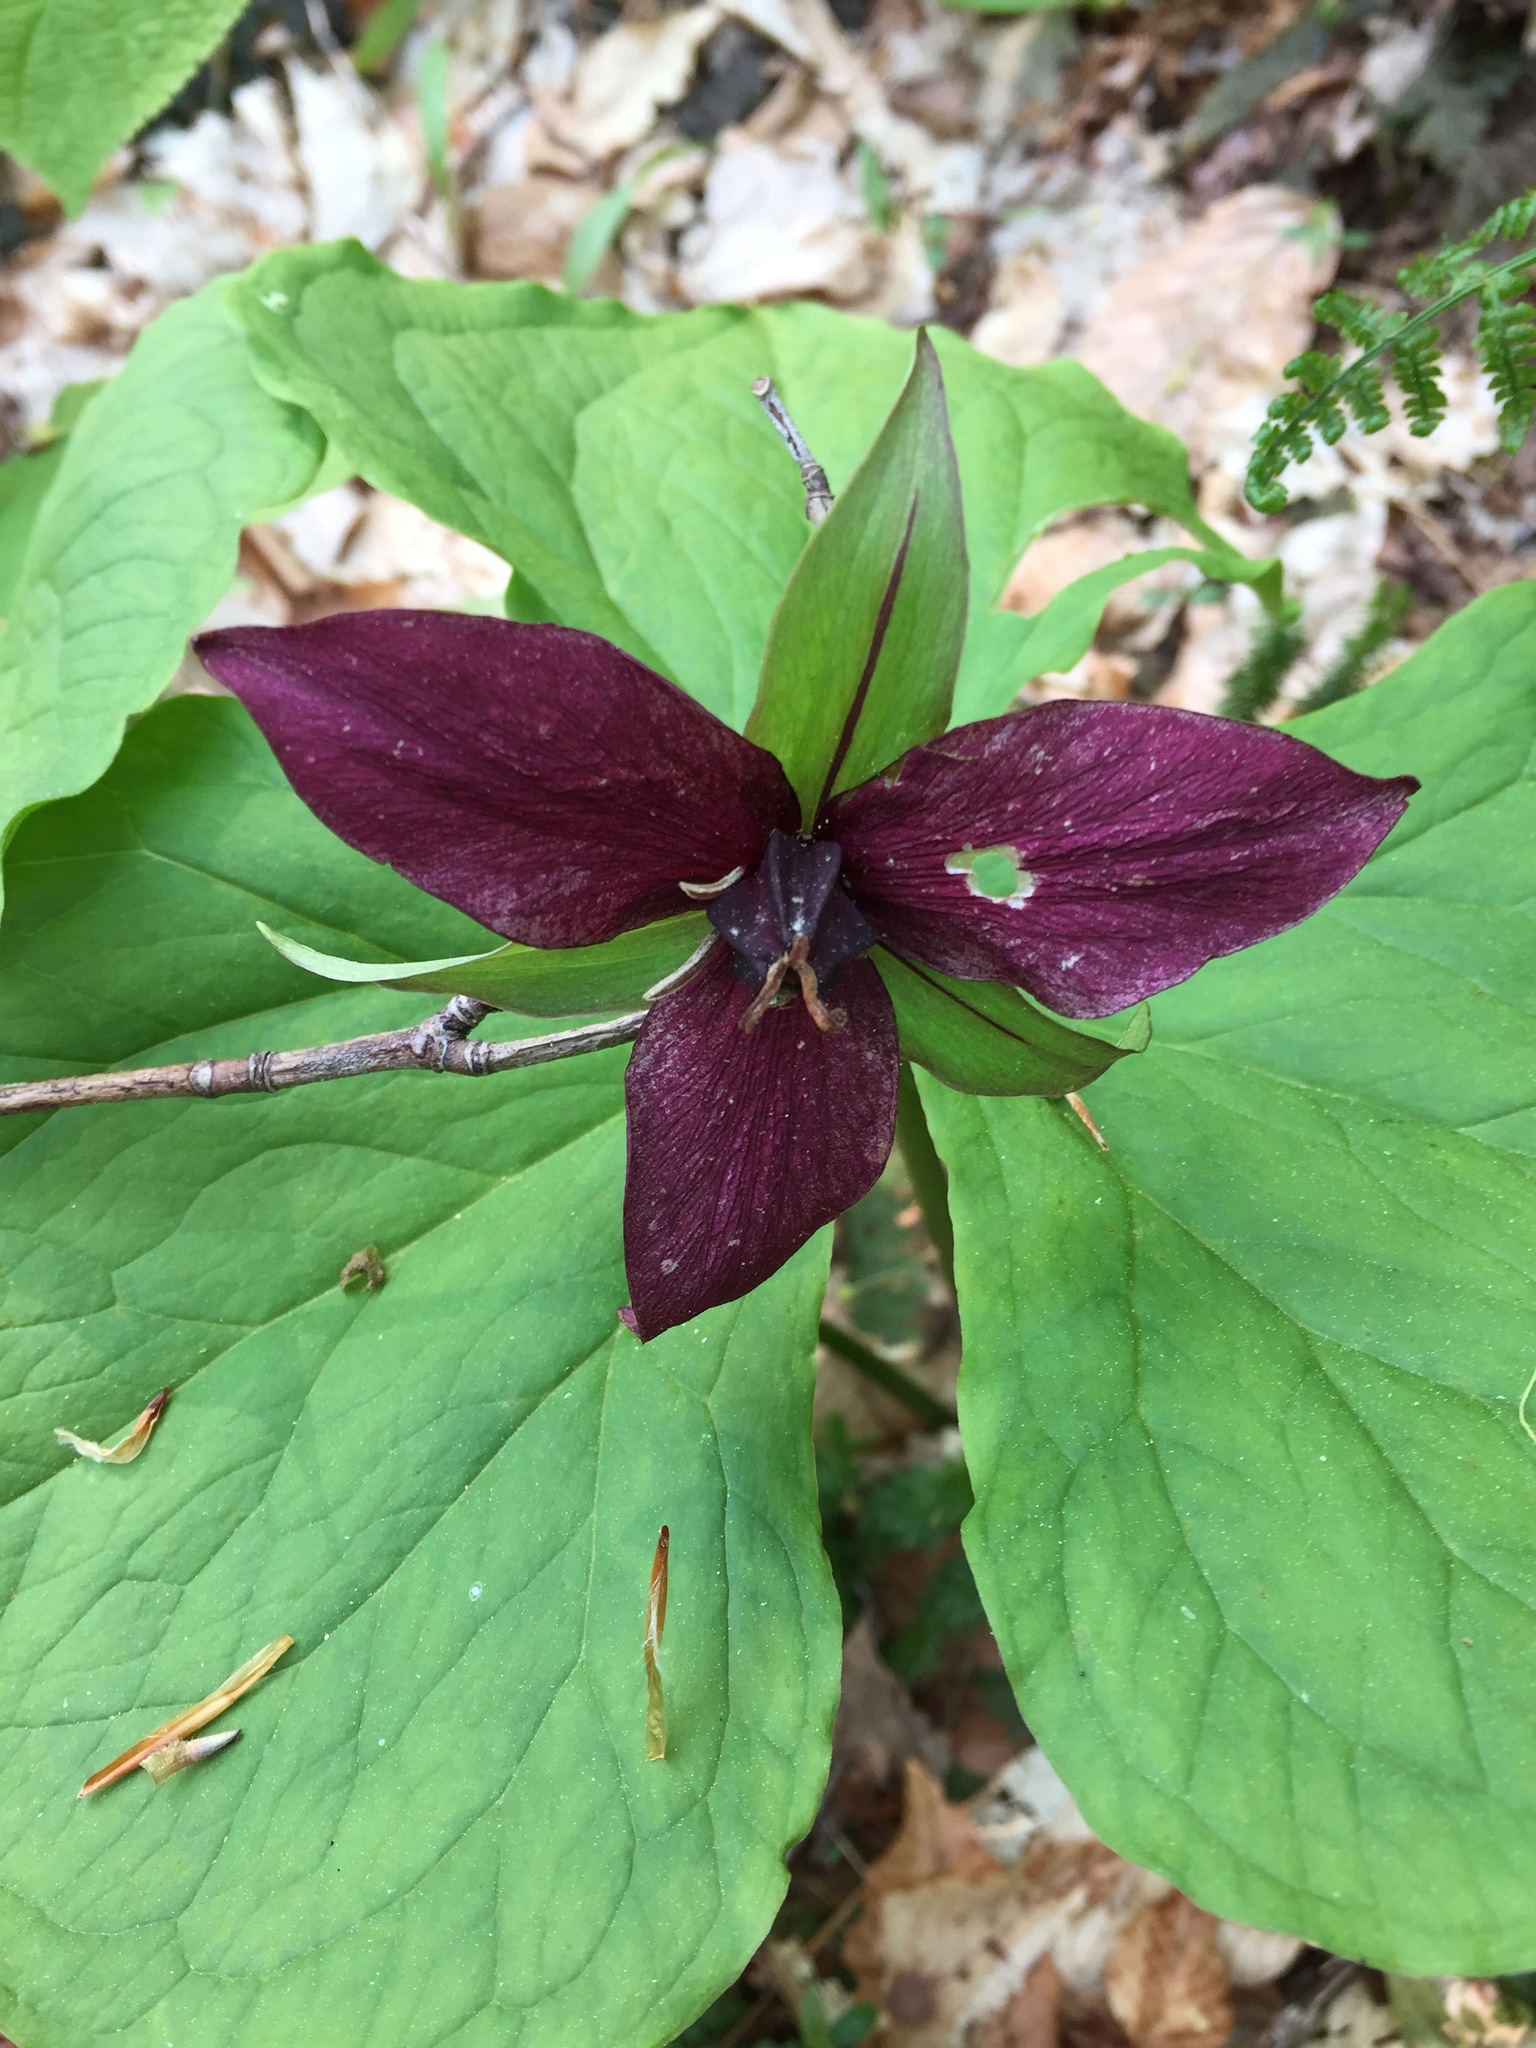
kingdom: Plantae
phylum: Tracheophyta
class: Liliopsida
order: Liliales
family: Melanthiaceae
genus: Trillium
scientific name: Trillium erectum
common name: Purple trillium
